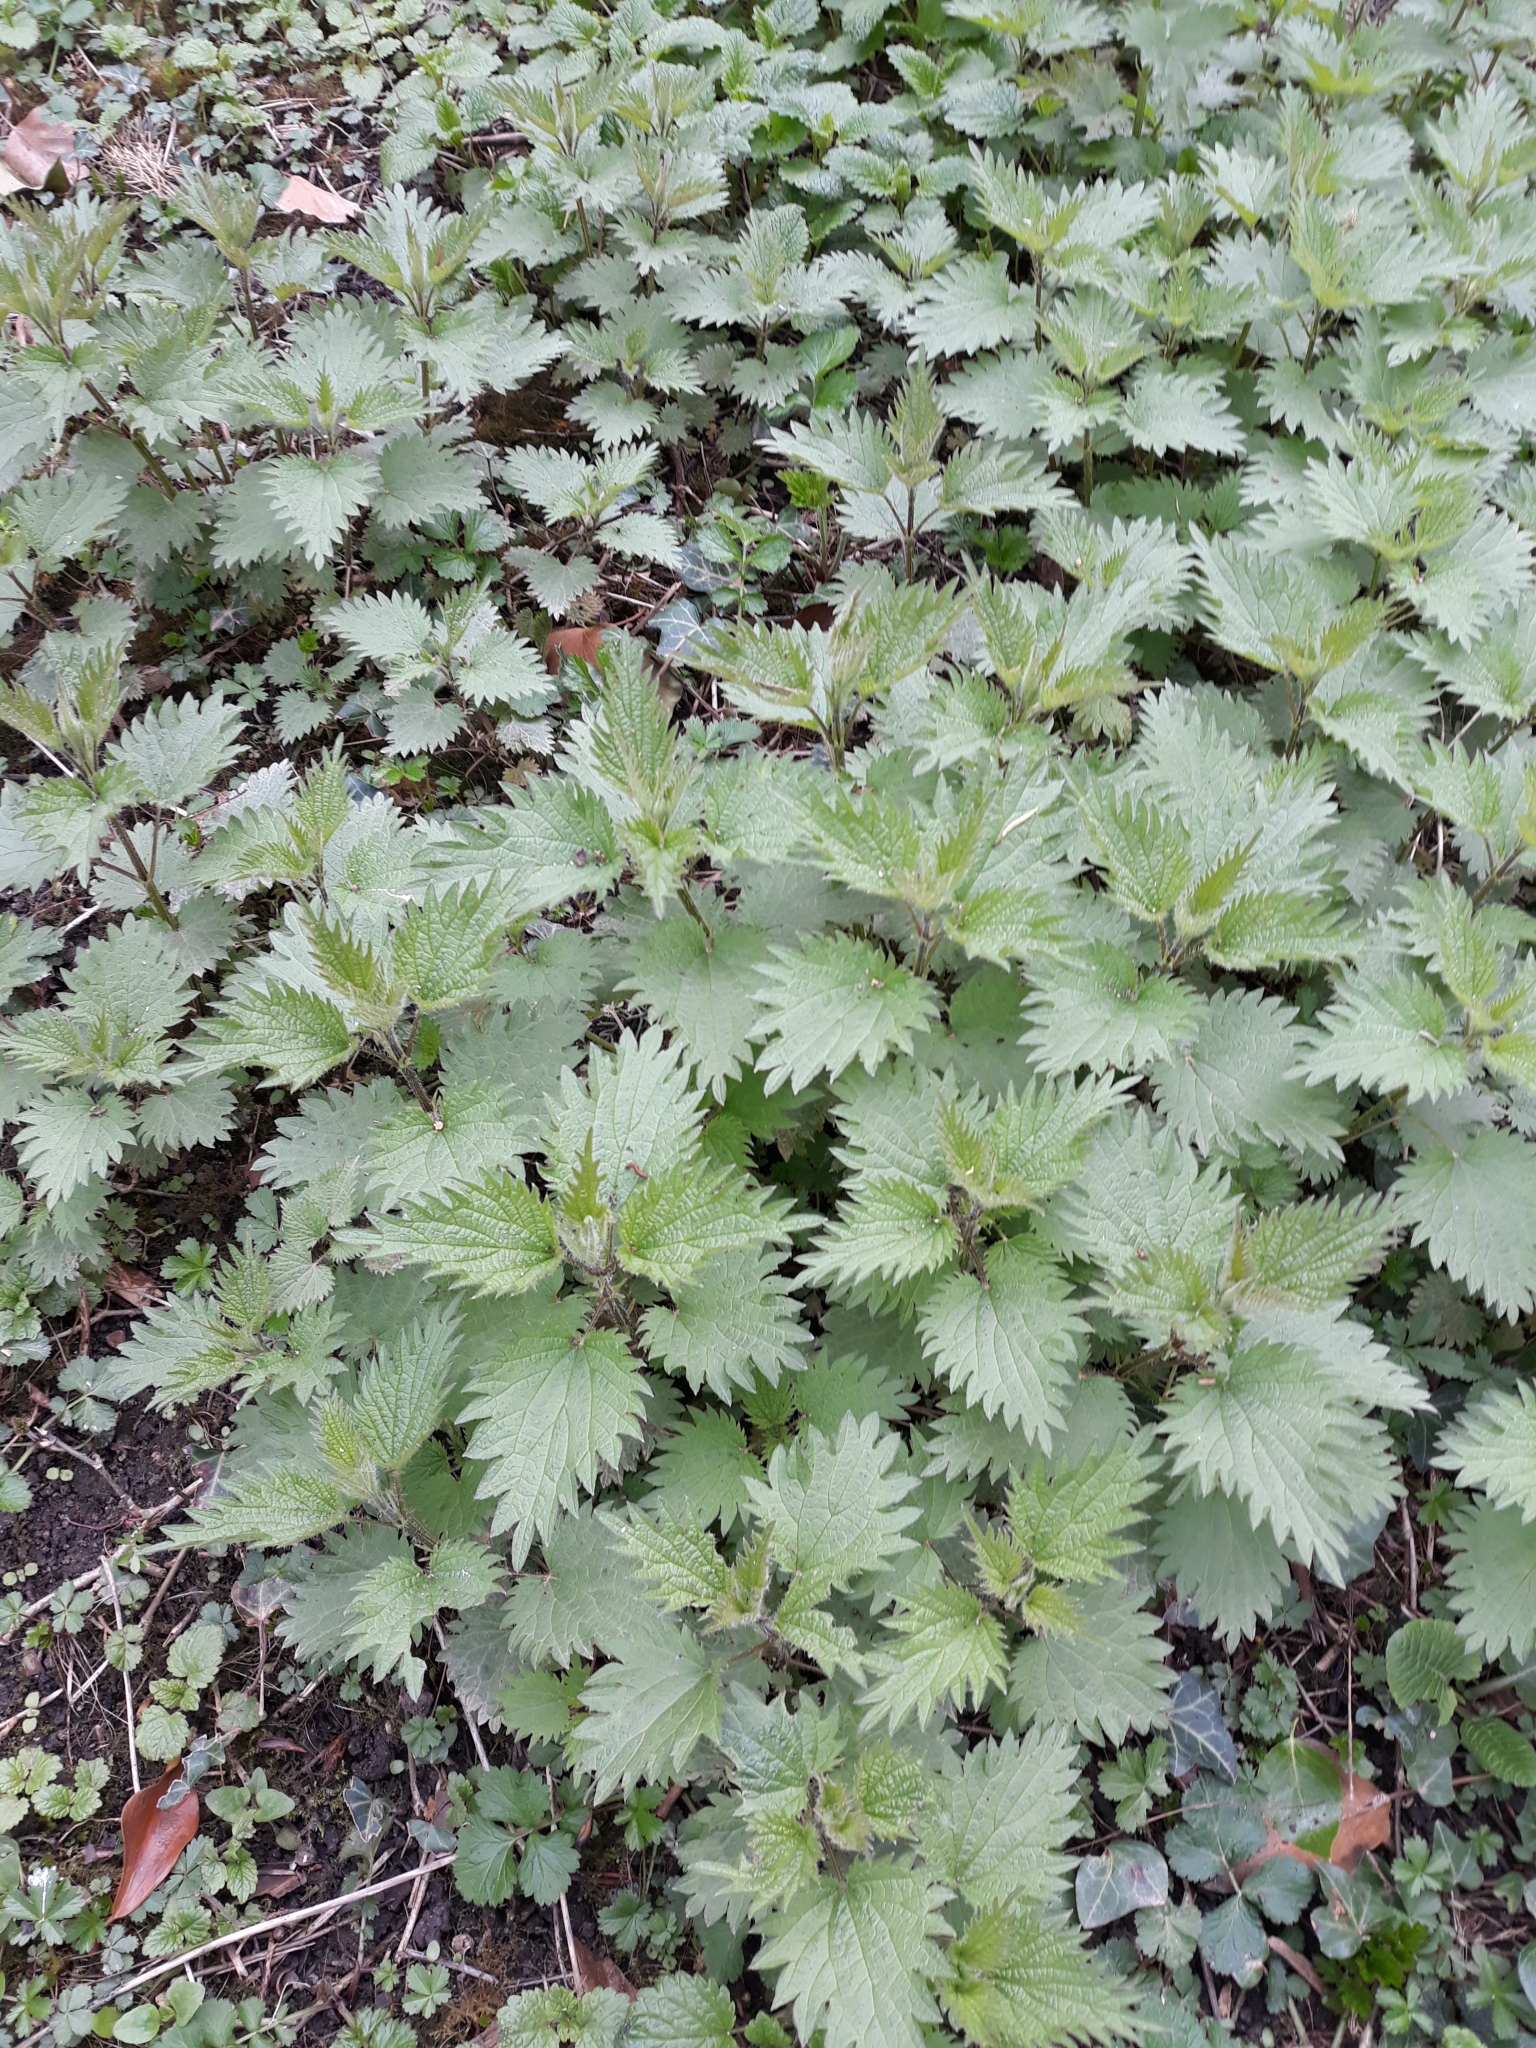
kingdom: Plantae
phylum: Tracheophyta
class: Magnoliopsida
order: Rosales
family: Urticaceae
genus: Urtica
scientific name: Urtica dioica
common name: Common nettle
